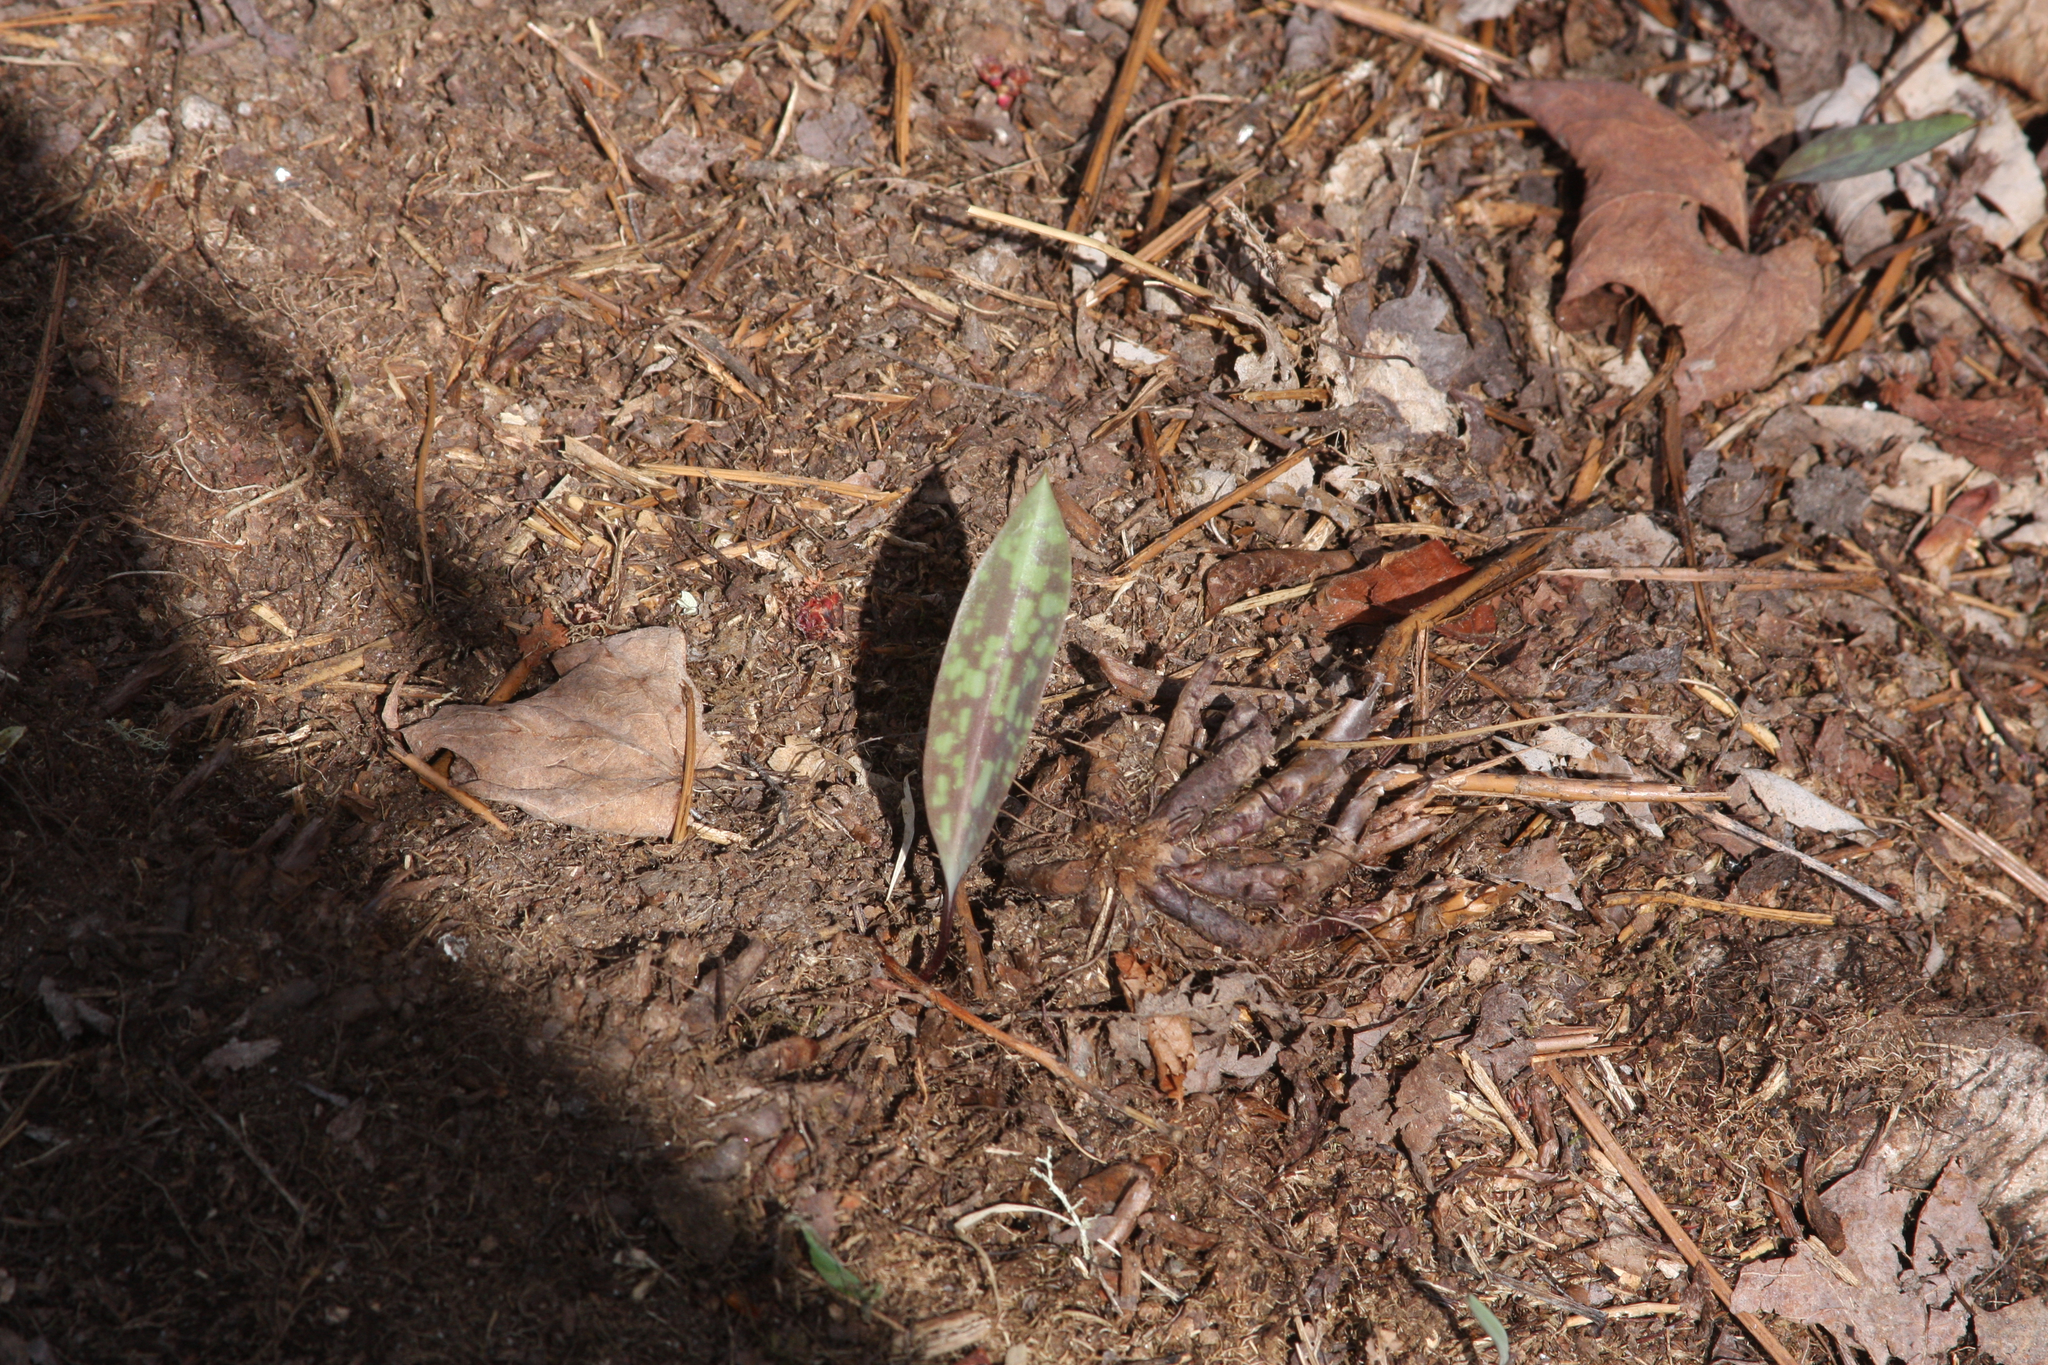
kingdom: Plantae
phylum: Tracheophyta
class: Liliopsida
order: Liliales
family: Liliaceae
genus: Erythronium
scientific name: Erythronium americanum
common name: Yellow adder's-tongue
